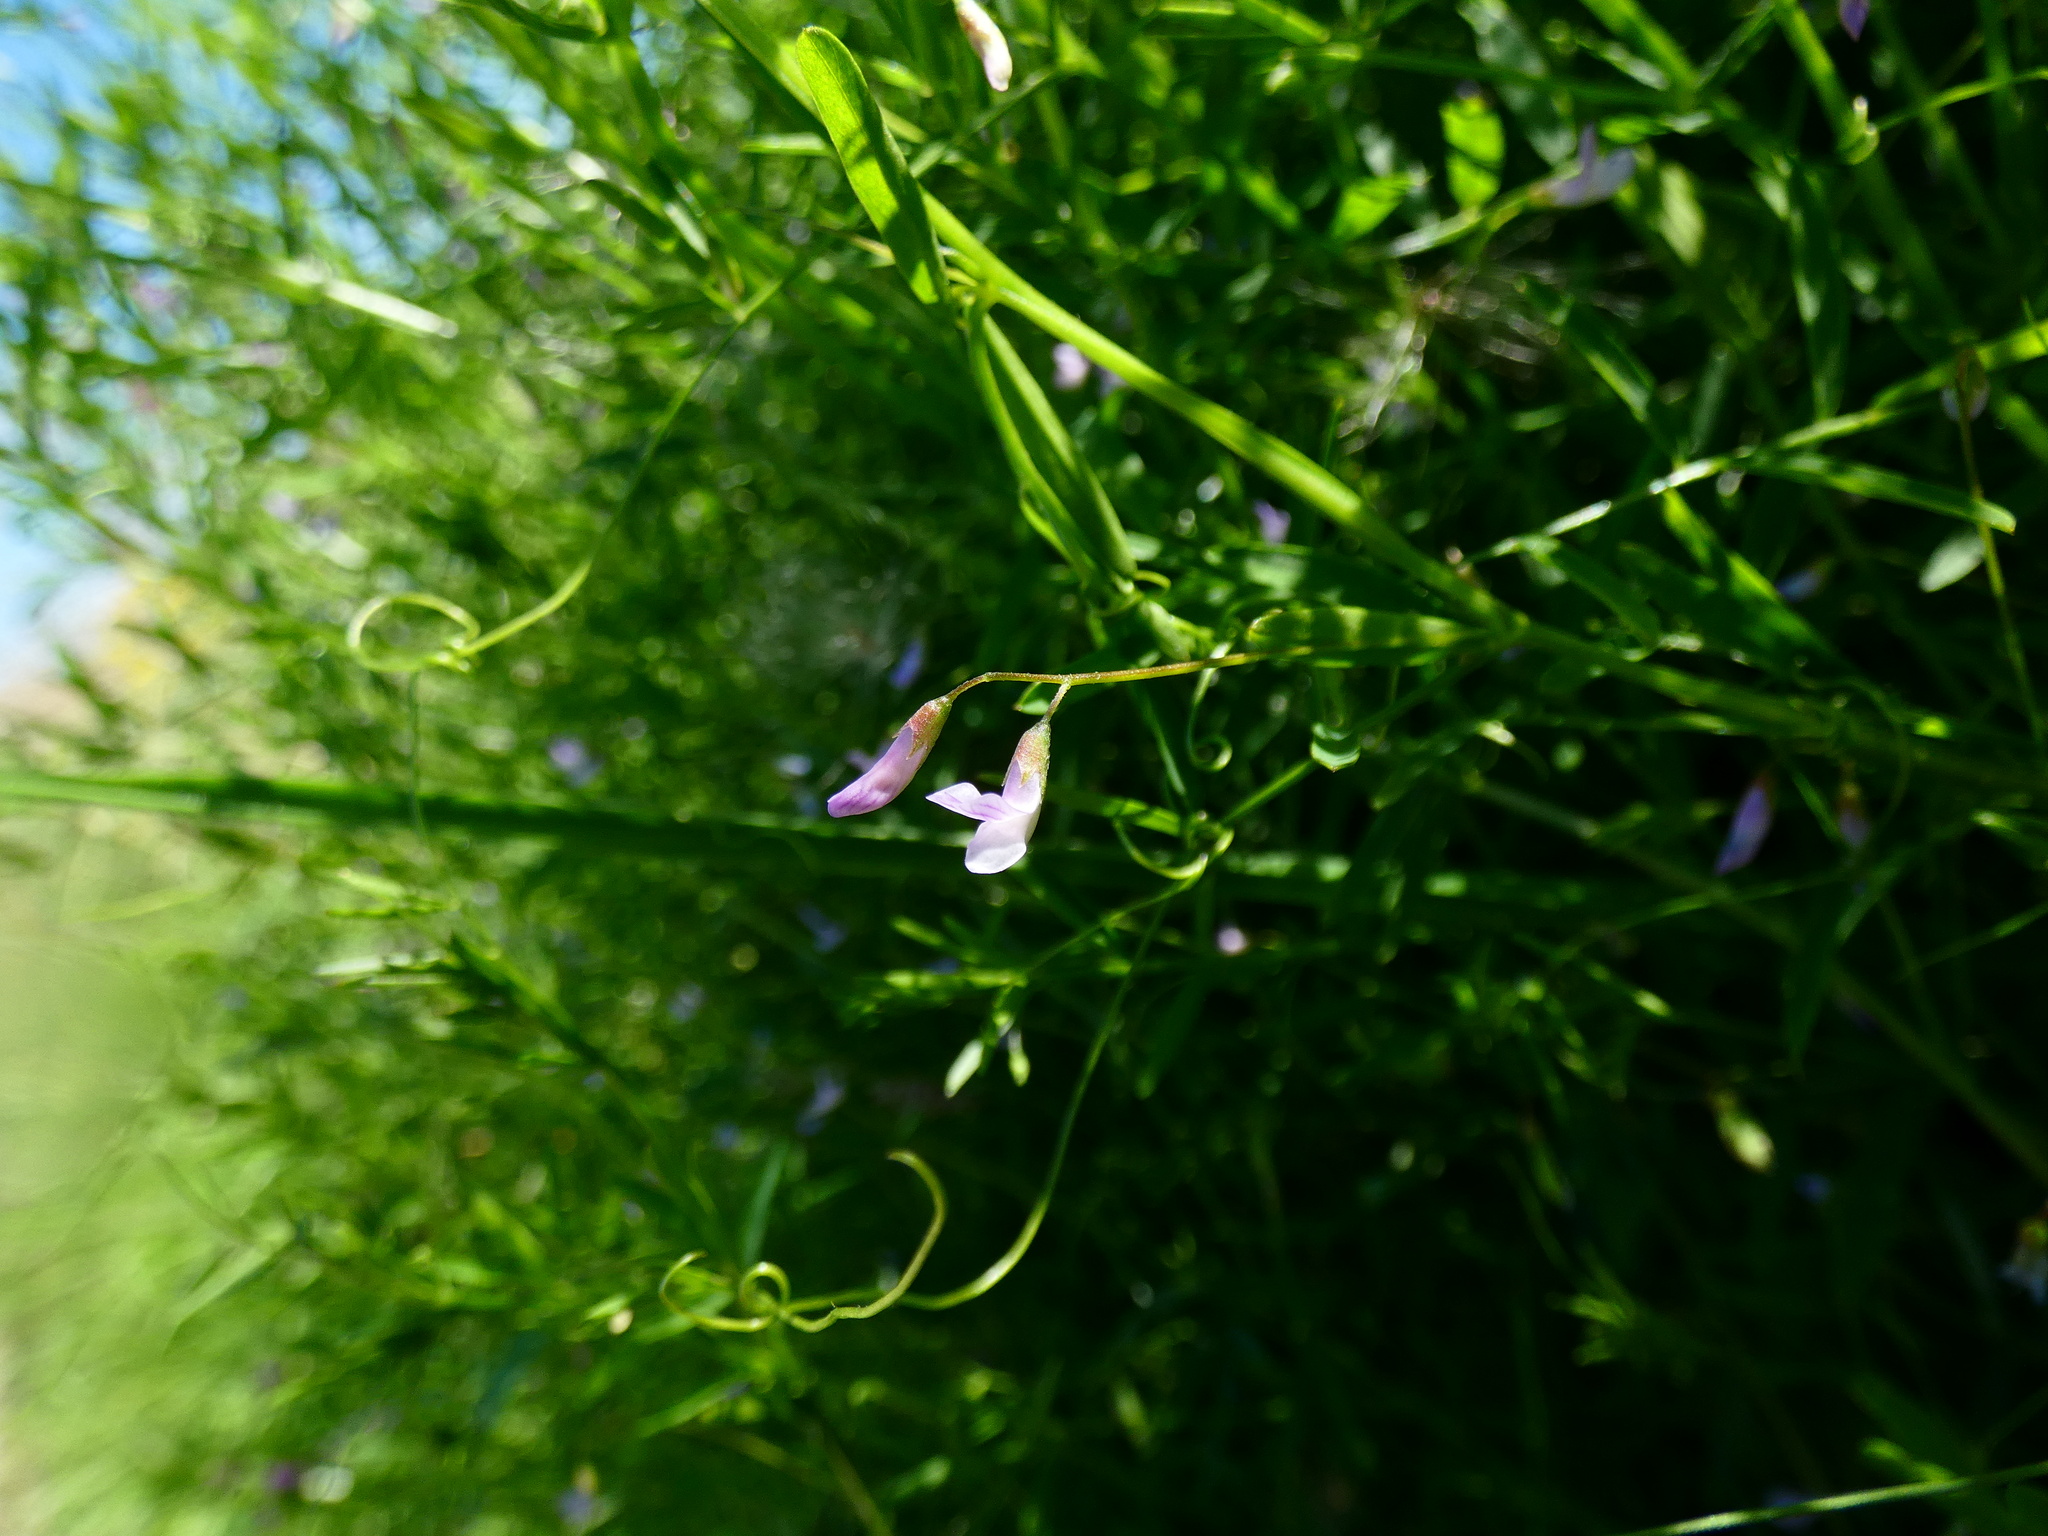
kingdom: Plantae
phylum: Tracheophyta
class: Magnoliopsida
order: Fabales
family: Fabaceae
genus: Vicia
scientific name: Vicia tetrasperma
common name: Smooth tare
